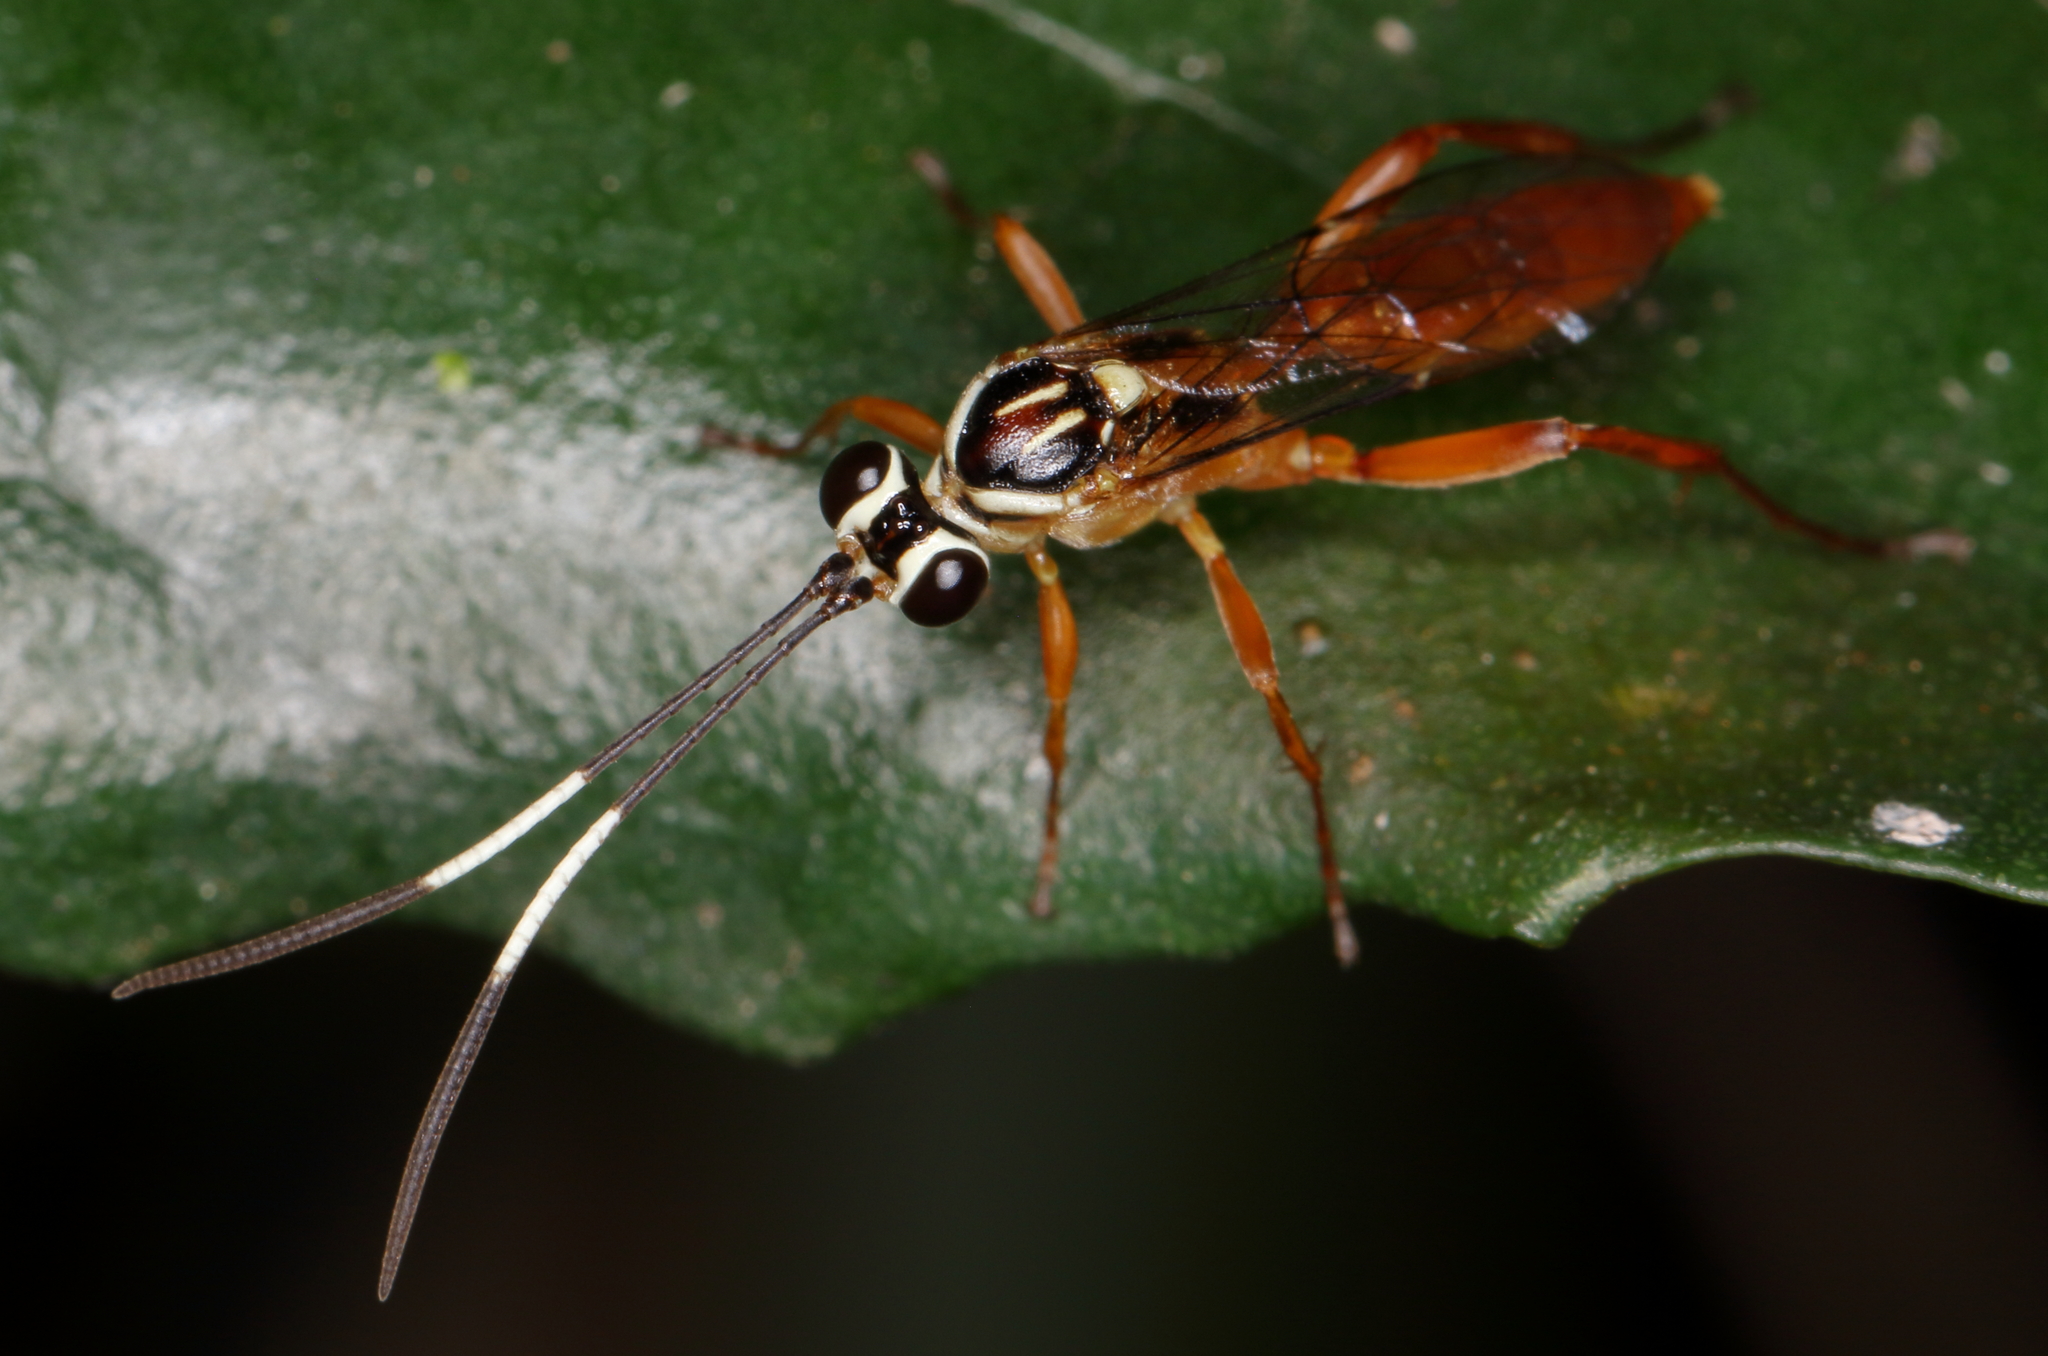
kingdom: Animalia
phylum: Arthropoda
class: Insecta
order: Hymenoptera
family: Ichneumonidae
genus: Afrobystra
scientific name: Afrobystra variata
